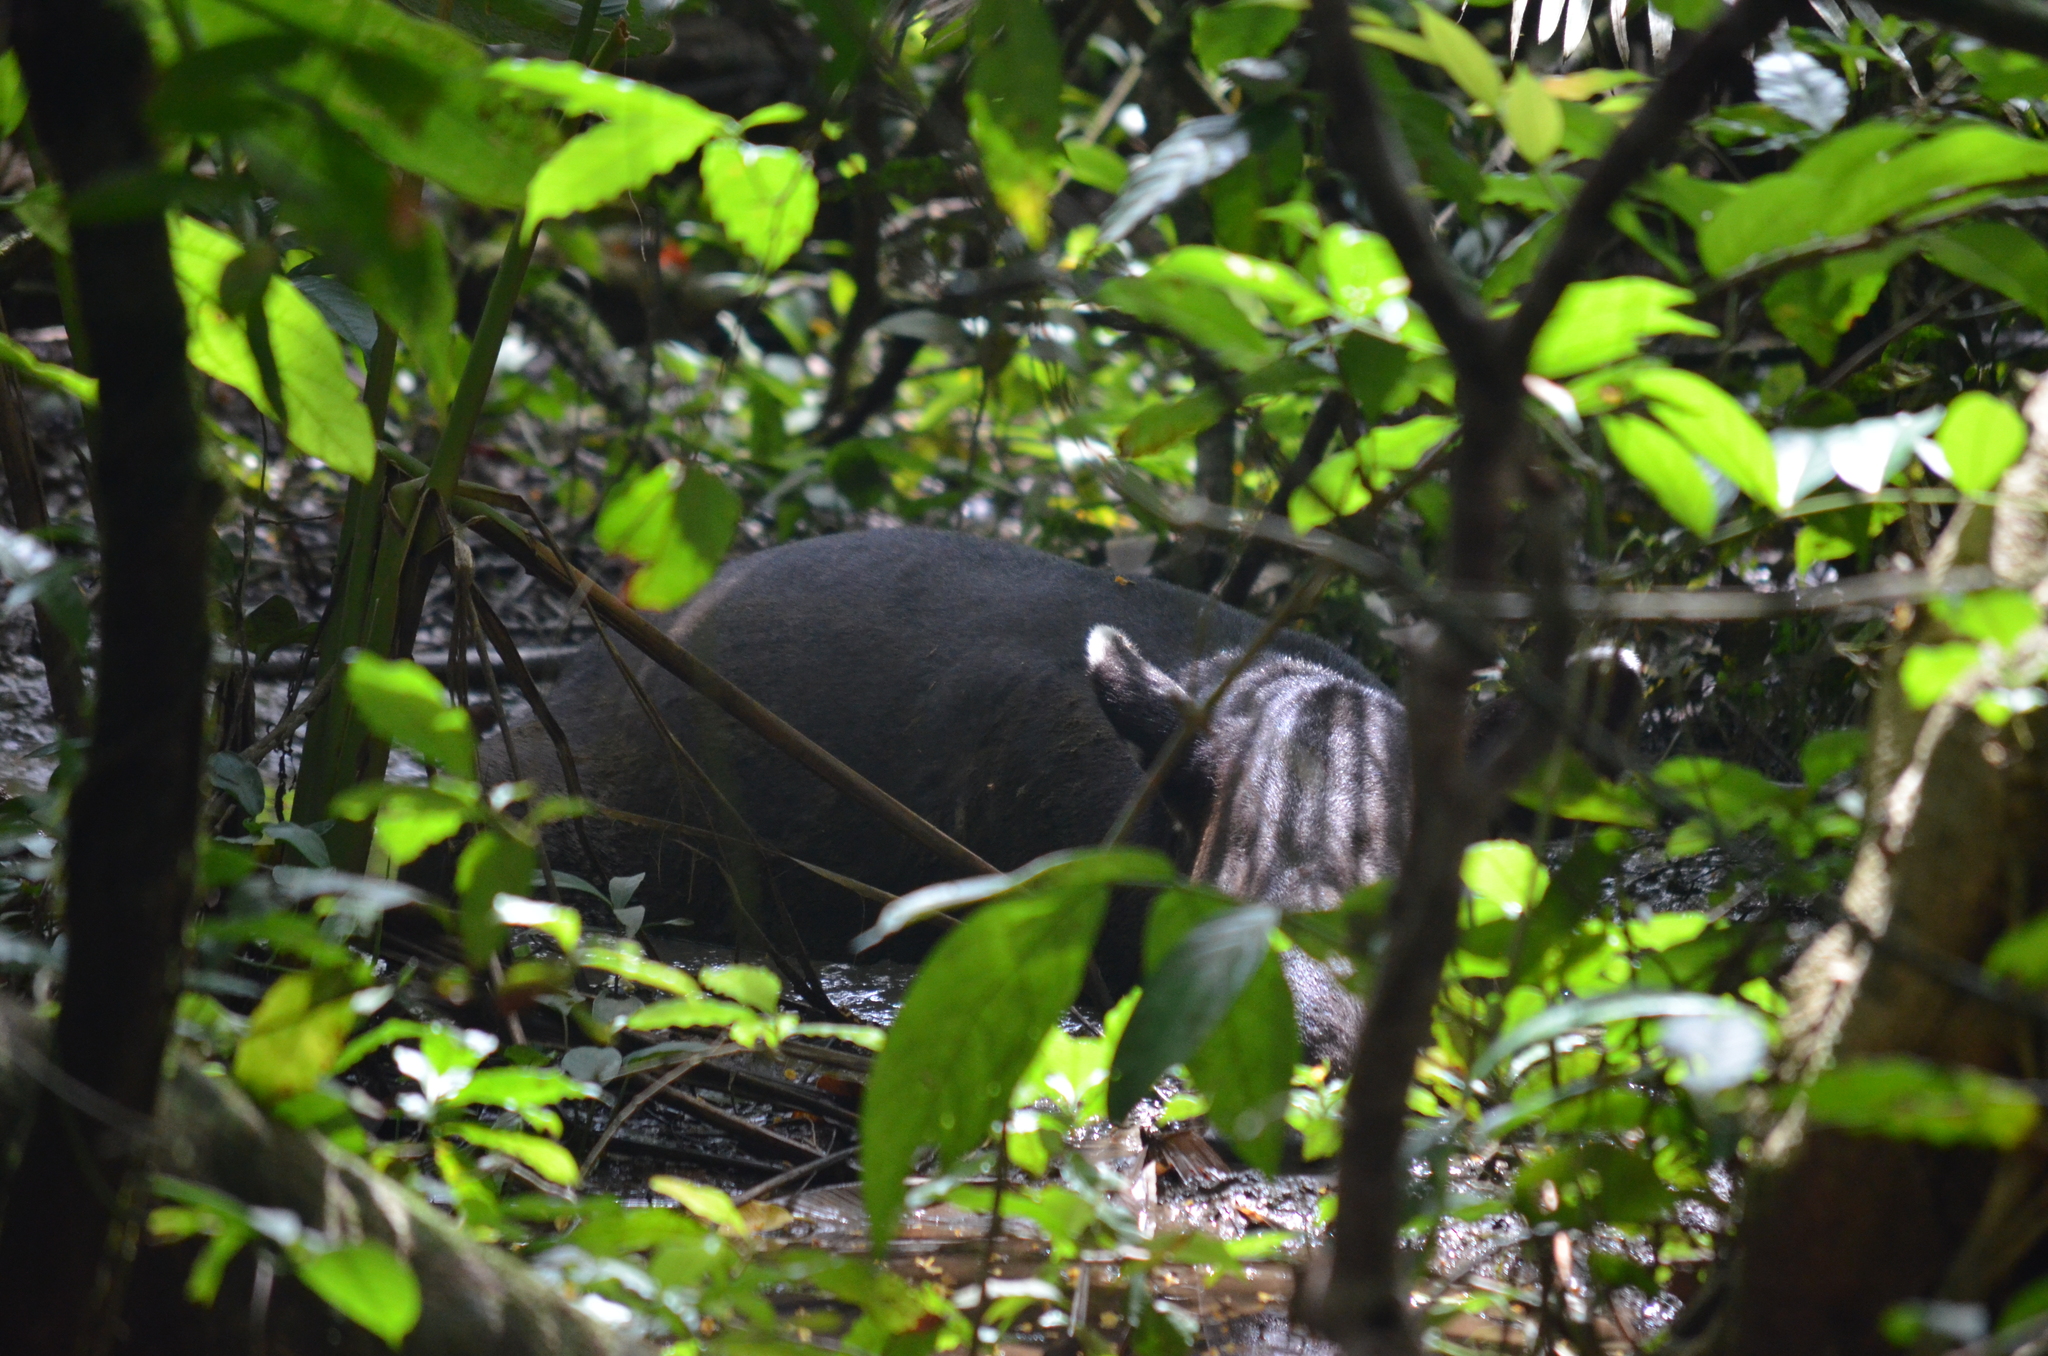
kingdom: Animalia
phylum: Chordata
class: Mammalia
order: Perissodactyla
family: Tapiridae
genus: Tapirella
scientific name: Tapirella bairdii
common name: Baird's tapir
